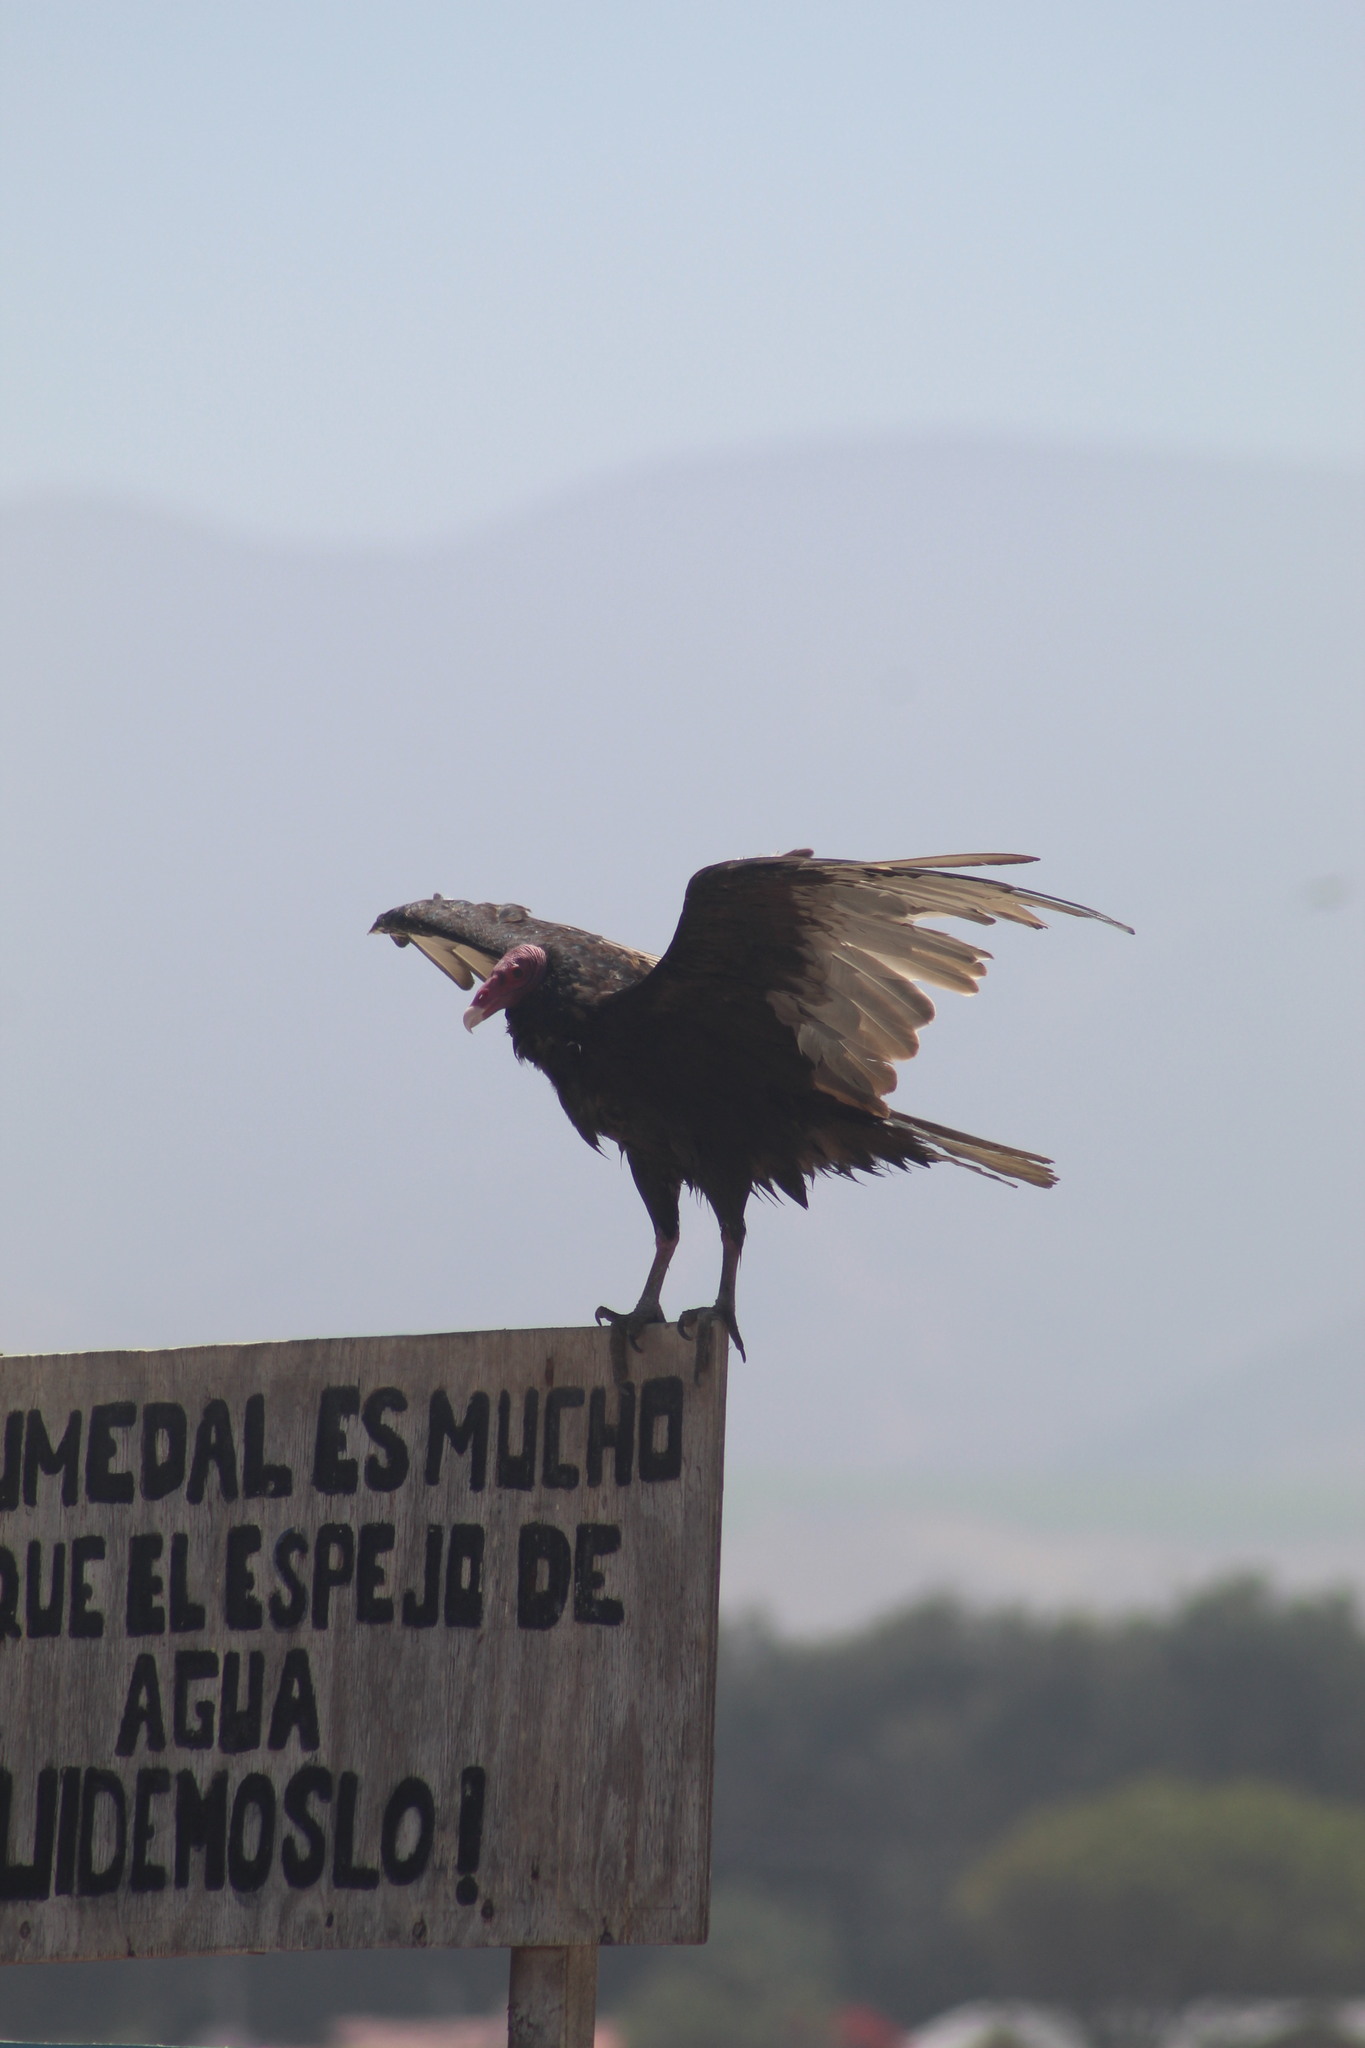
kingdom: Animalia
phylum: Chordata
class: Aves
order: Accipitriformes
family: Cathartidae
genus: Cathartes
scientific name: Cathartes aura
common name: Turkey vulture
